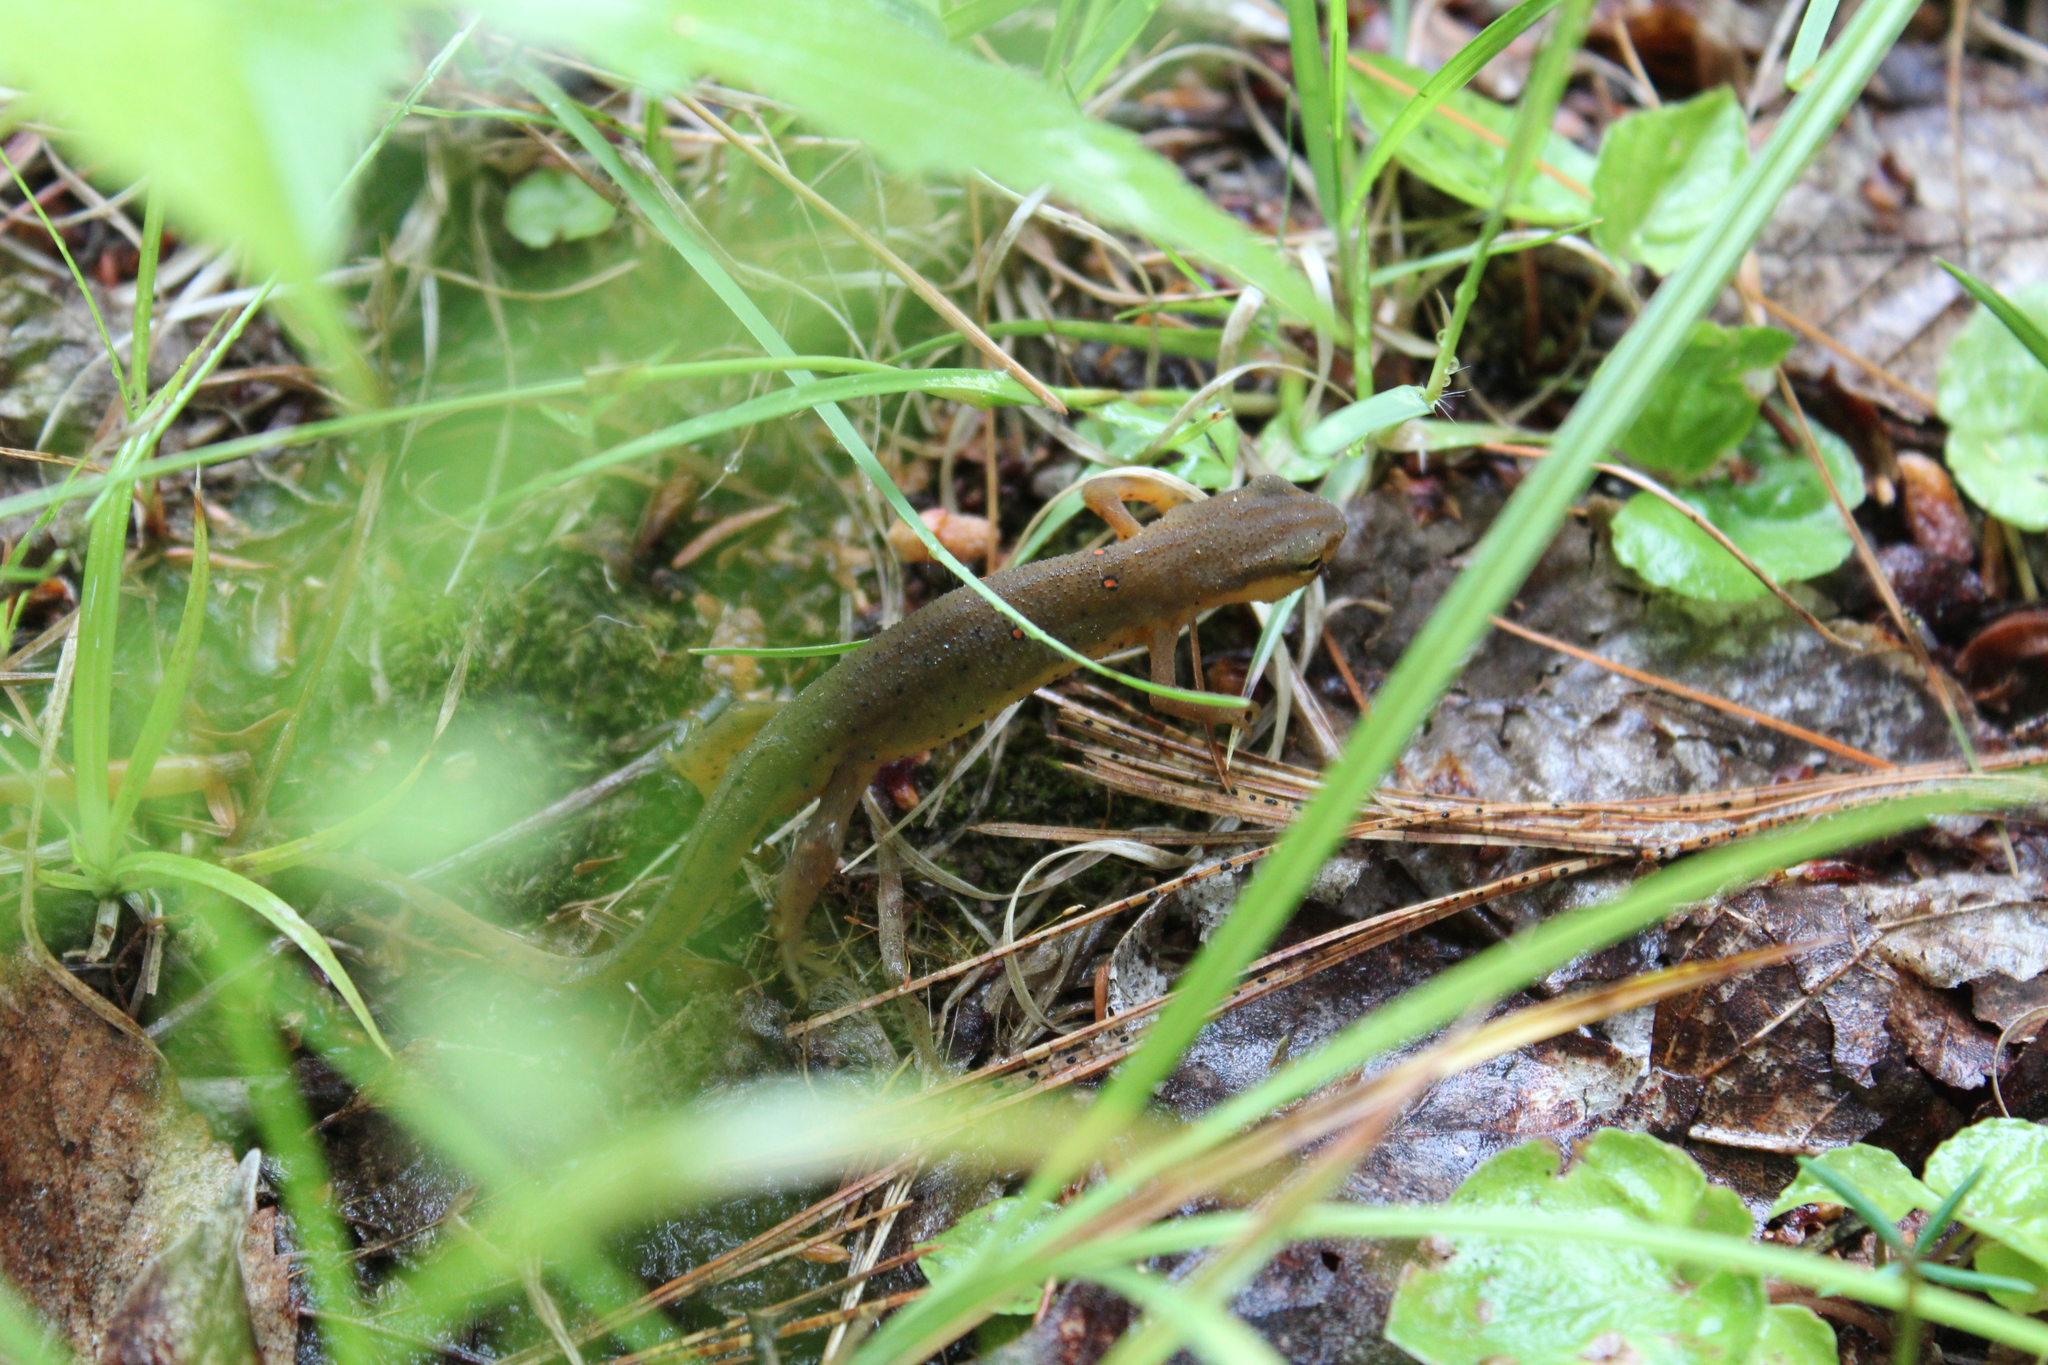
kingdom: Animalia
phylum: Chordata
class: Amphibia
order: Caudata
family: Salamandridae
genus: Notophthalmus
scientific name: Notophthalmus viridescens
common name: Eastern newt
